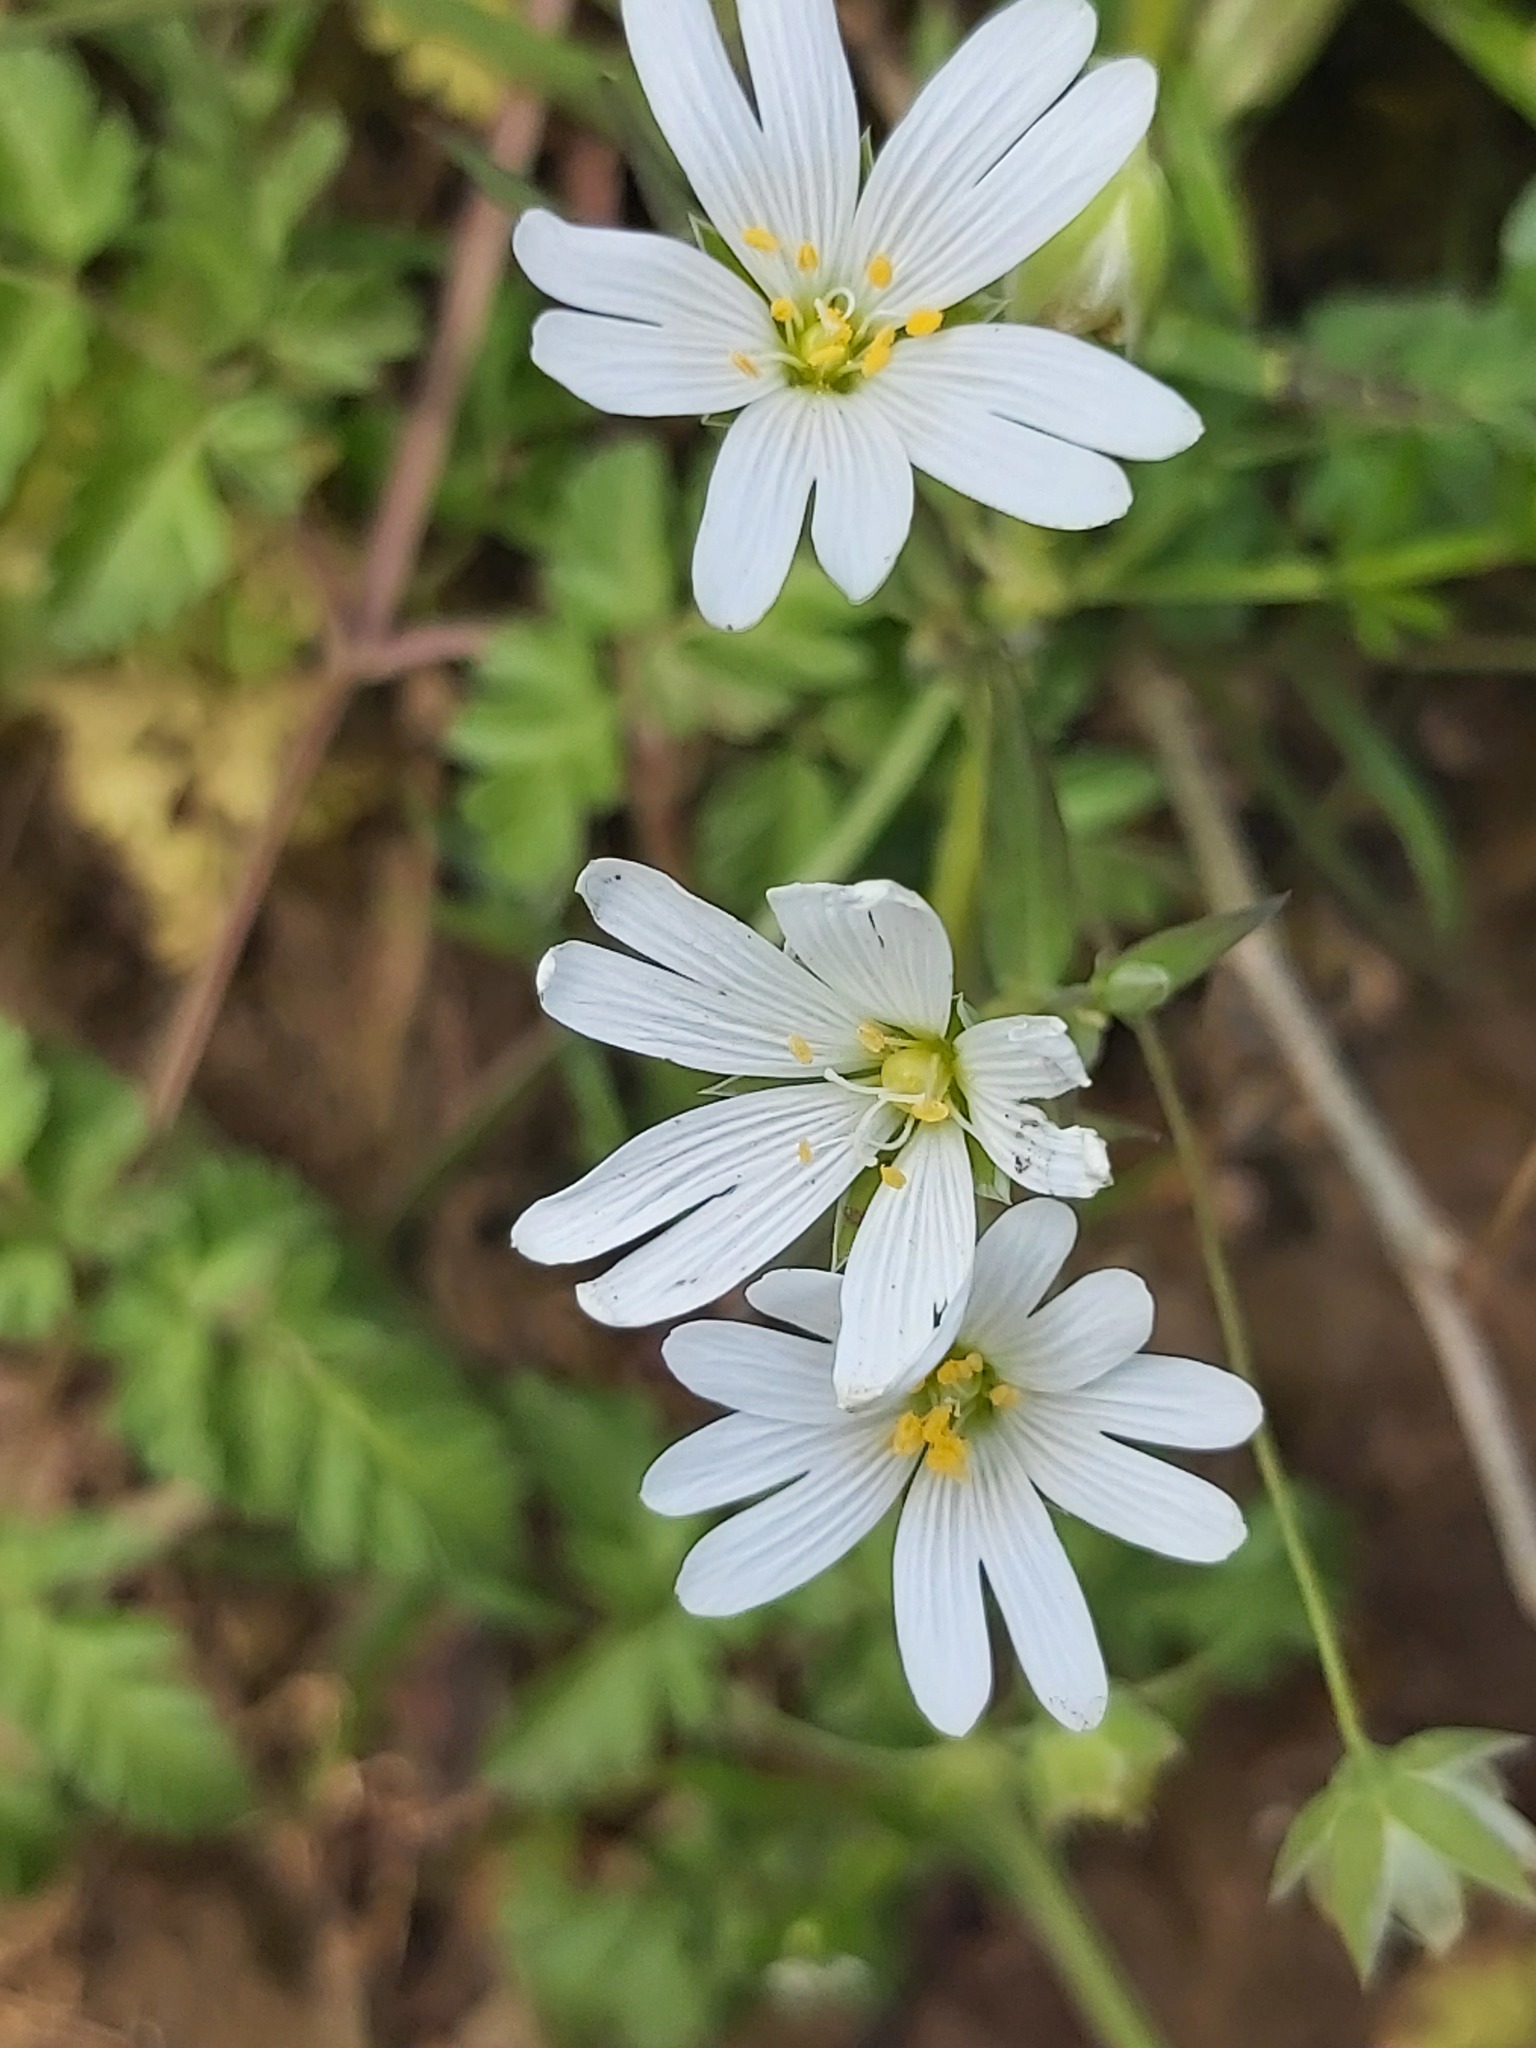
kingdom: Plantae
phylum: Tracheophyta
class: Magnoliopsida
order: Caryophyllales
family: Caryophyllaceae
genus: Rabelera
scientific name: Rabelera holostea
